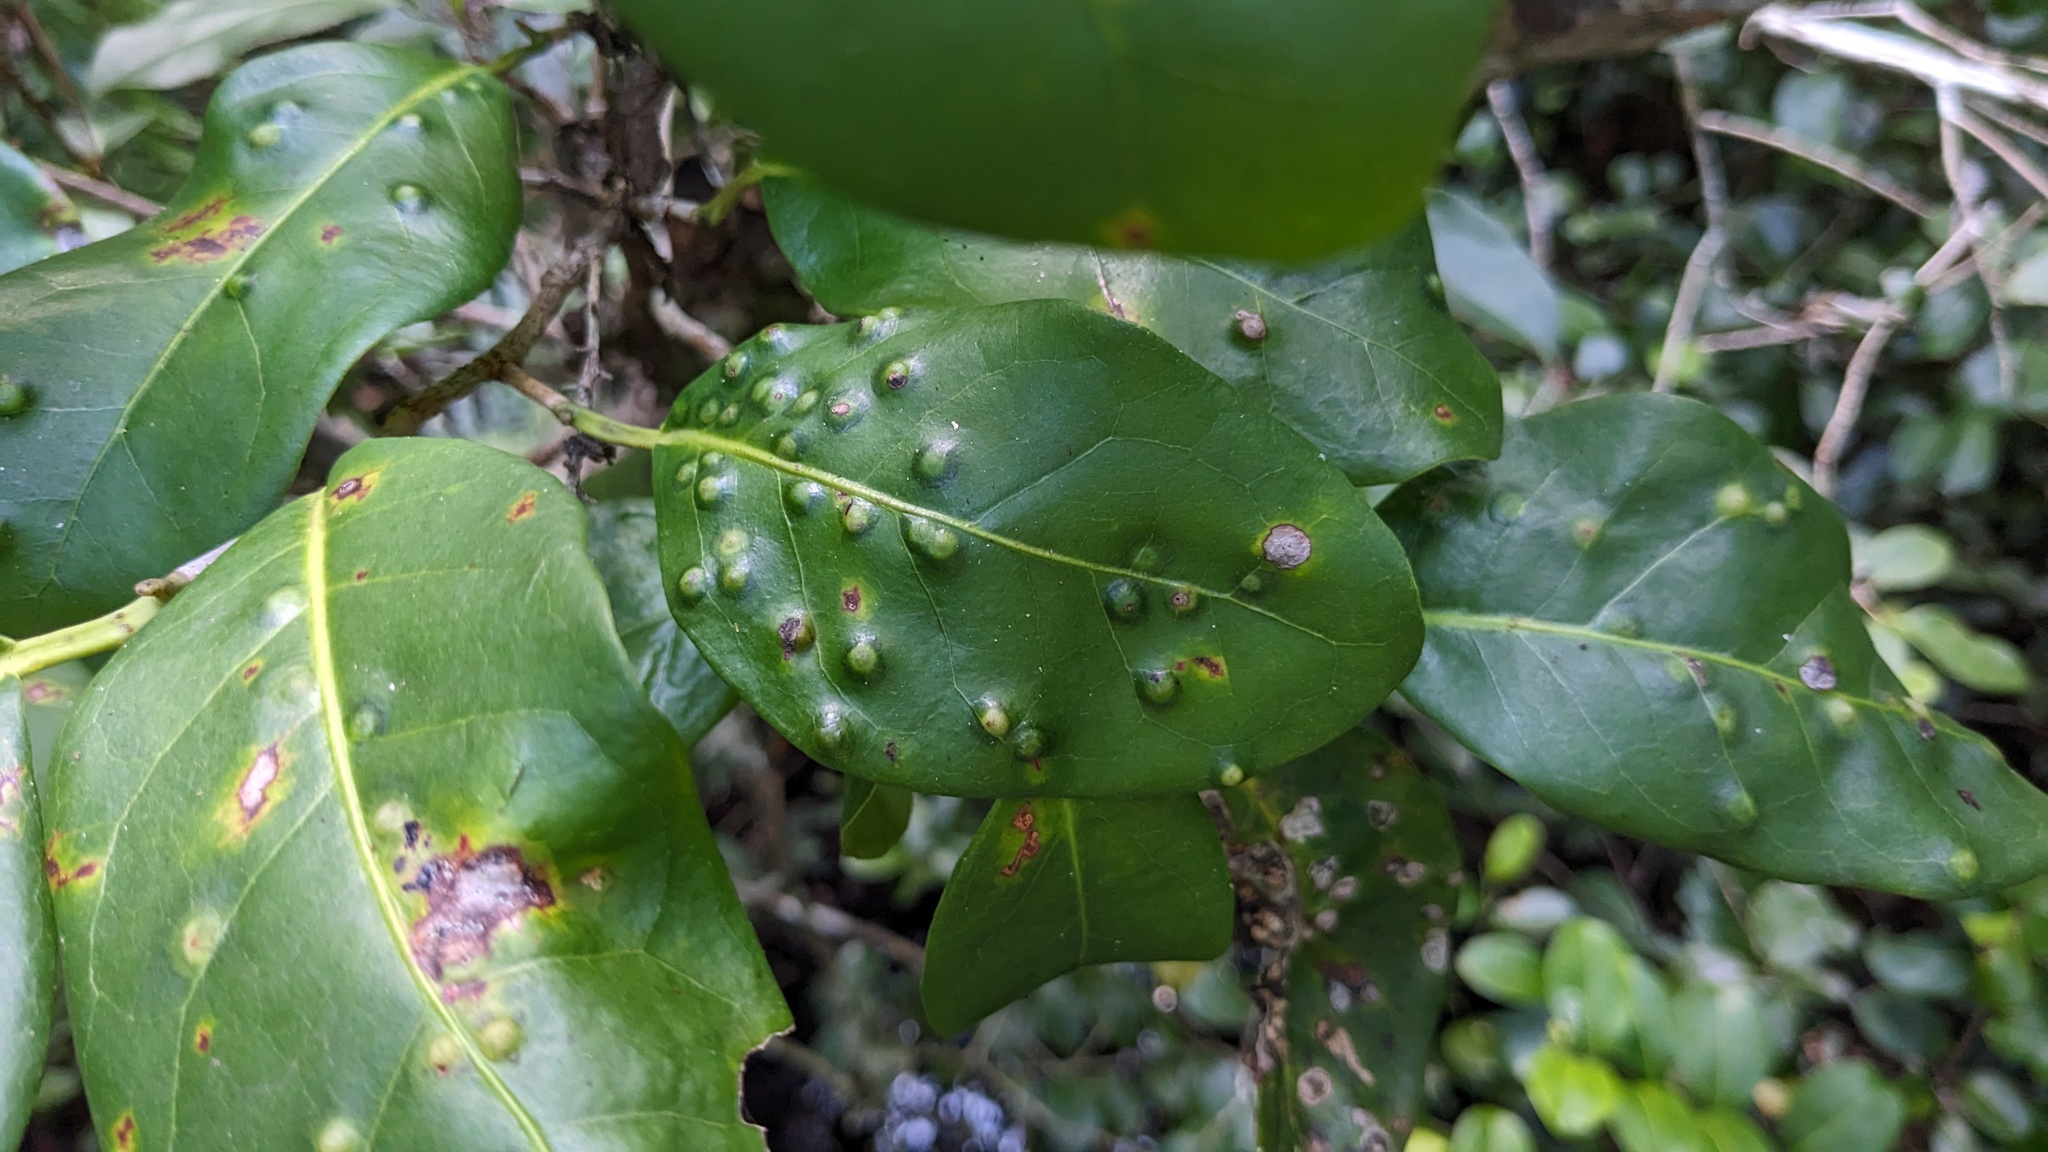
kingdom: Animalia
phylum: Arthropoda
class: Insecta
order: Diptera
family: Cecidomyiidae
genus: Ctenodactylomyia
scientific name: Ctenodactylomyia watsoni
